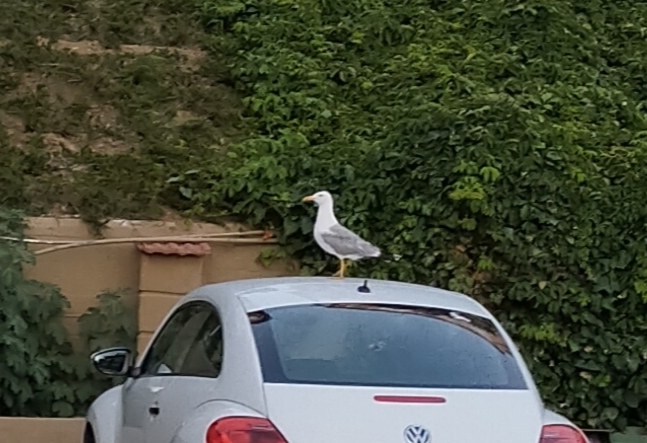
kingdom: Animalia
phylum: Chordata
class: Aves
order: Charadriiformes
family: Laridae
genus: Larus
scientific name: Larus michahellis
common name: Yellow-legged gull
